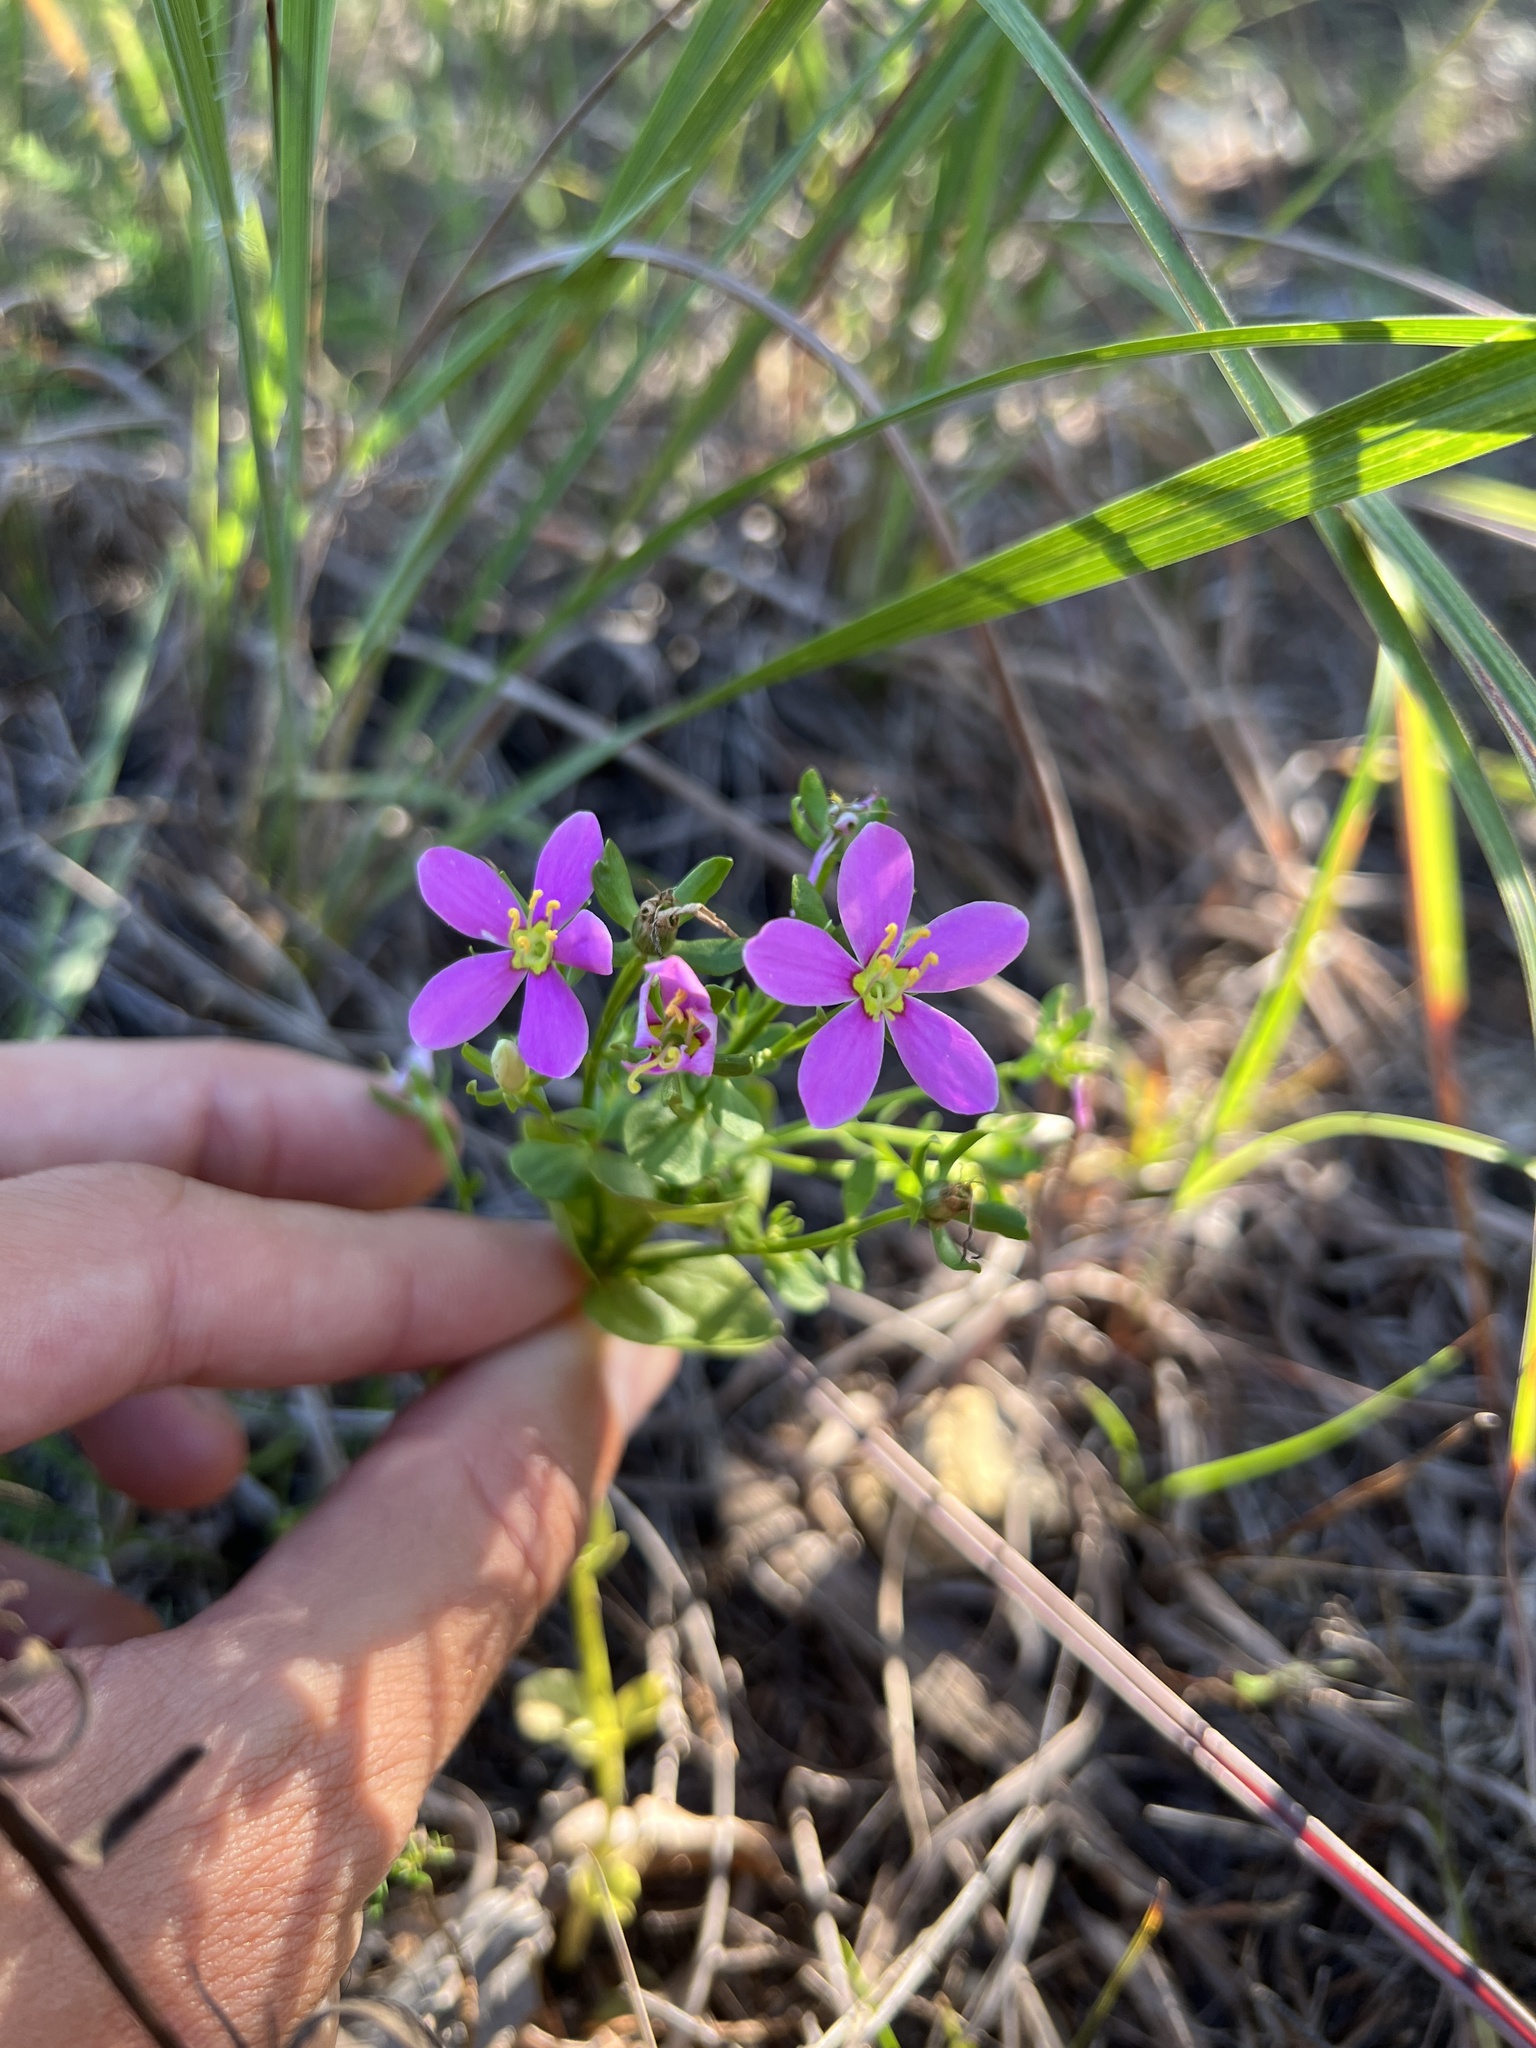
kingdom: Plantae
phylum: Tracheophyta
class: Magnoliopsida
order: Gentianales
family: Gentianaceae
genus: Sabatia
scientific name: Sabatia angularis
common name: Rose-pink
